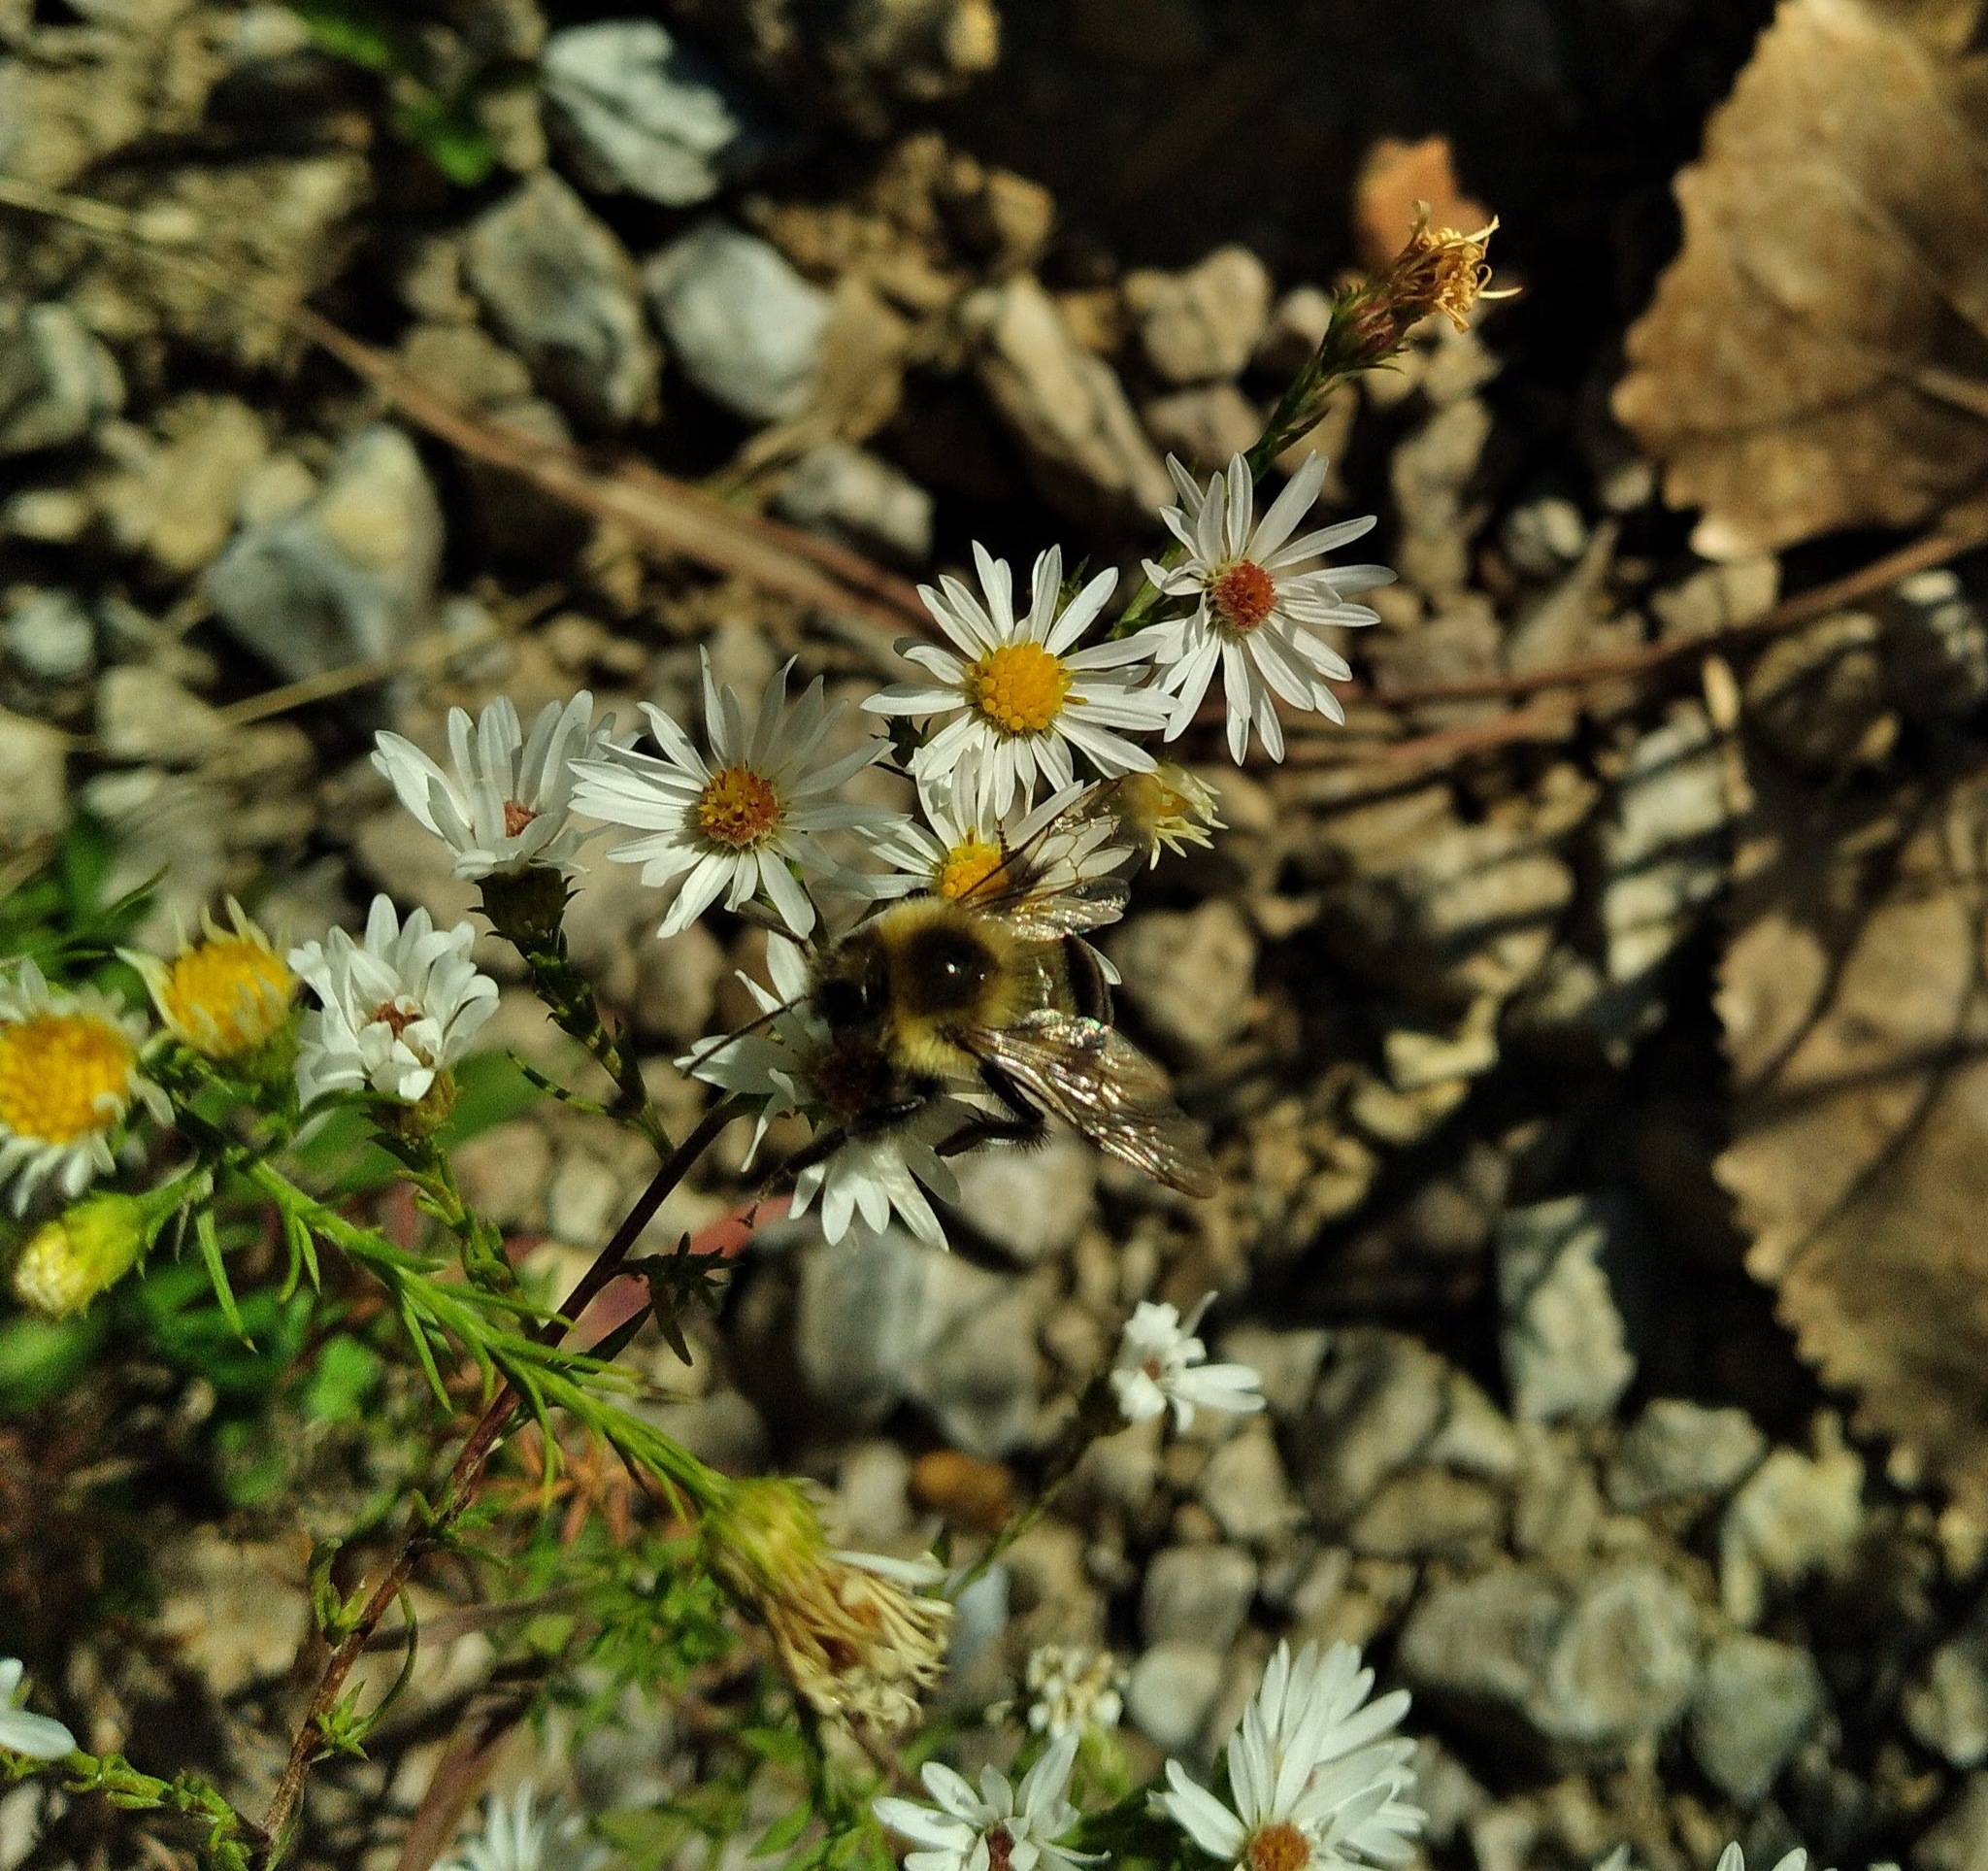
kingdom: Animalia
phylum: Arthropoda
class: Insecta
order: Hymenoptera
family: Apidae
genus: Bombus
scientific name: Bombus impatiens
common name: Common eastern bumble bee
